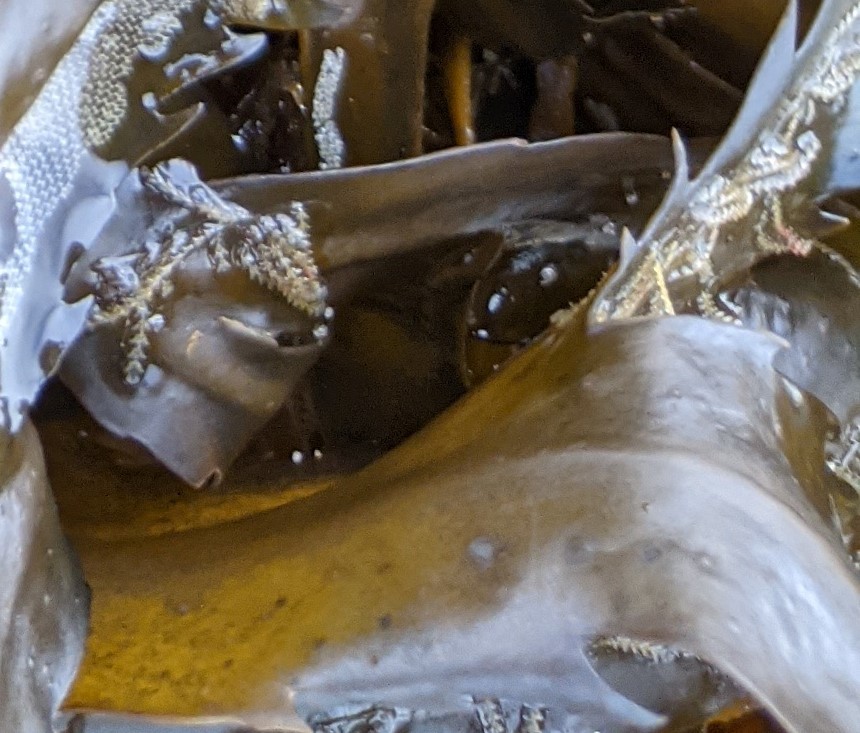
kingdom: Animalia
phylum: Cnidaria
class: Hydrozoa
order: Leptothecata
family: Sertulariidae
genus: Dynamena
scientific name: Dynamena pumila
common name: Sea oak
